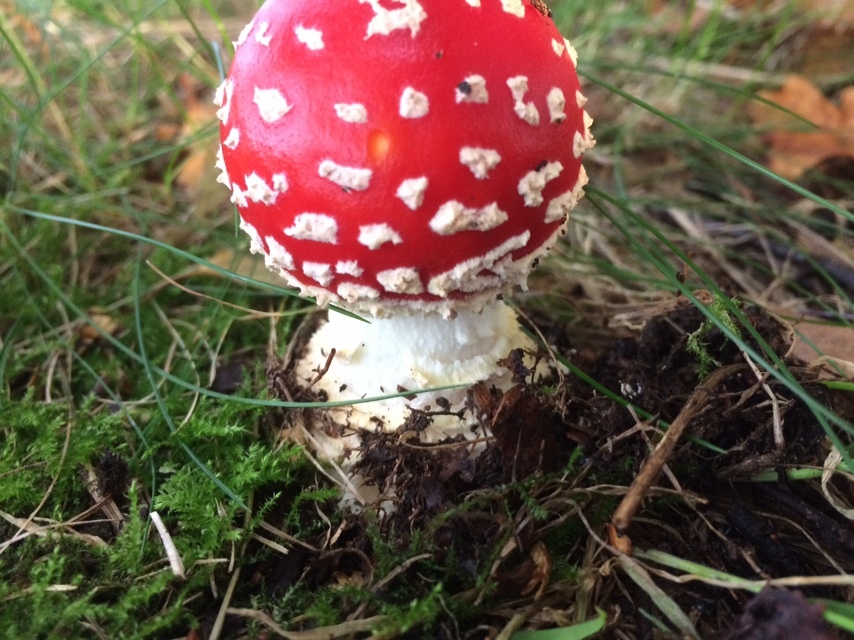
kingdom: Fungi
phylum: Basidiomycota
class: Agaricomycetes
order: Agaricales
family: Amanitaceae
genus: Amanita
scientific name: Amanita muscaria
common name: Fly agaric
